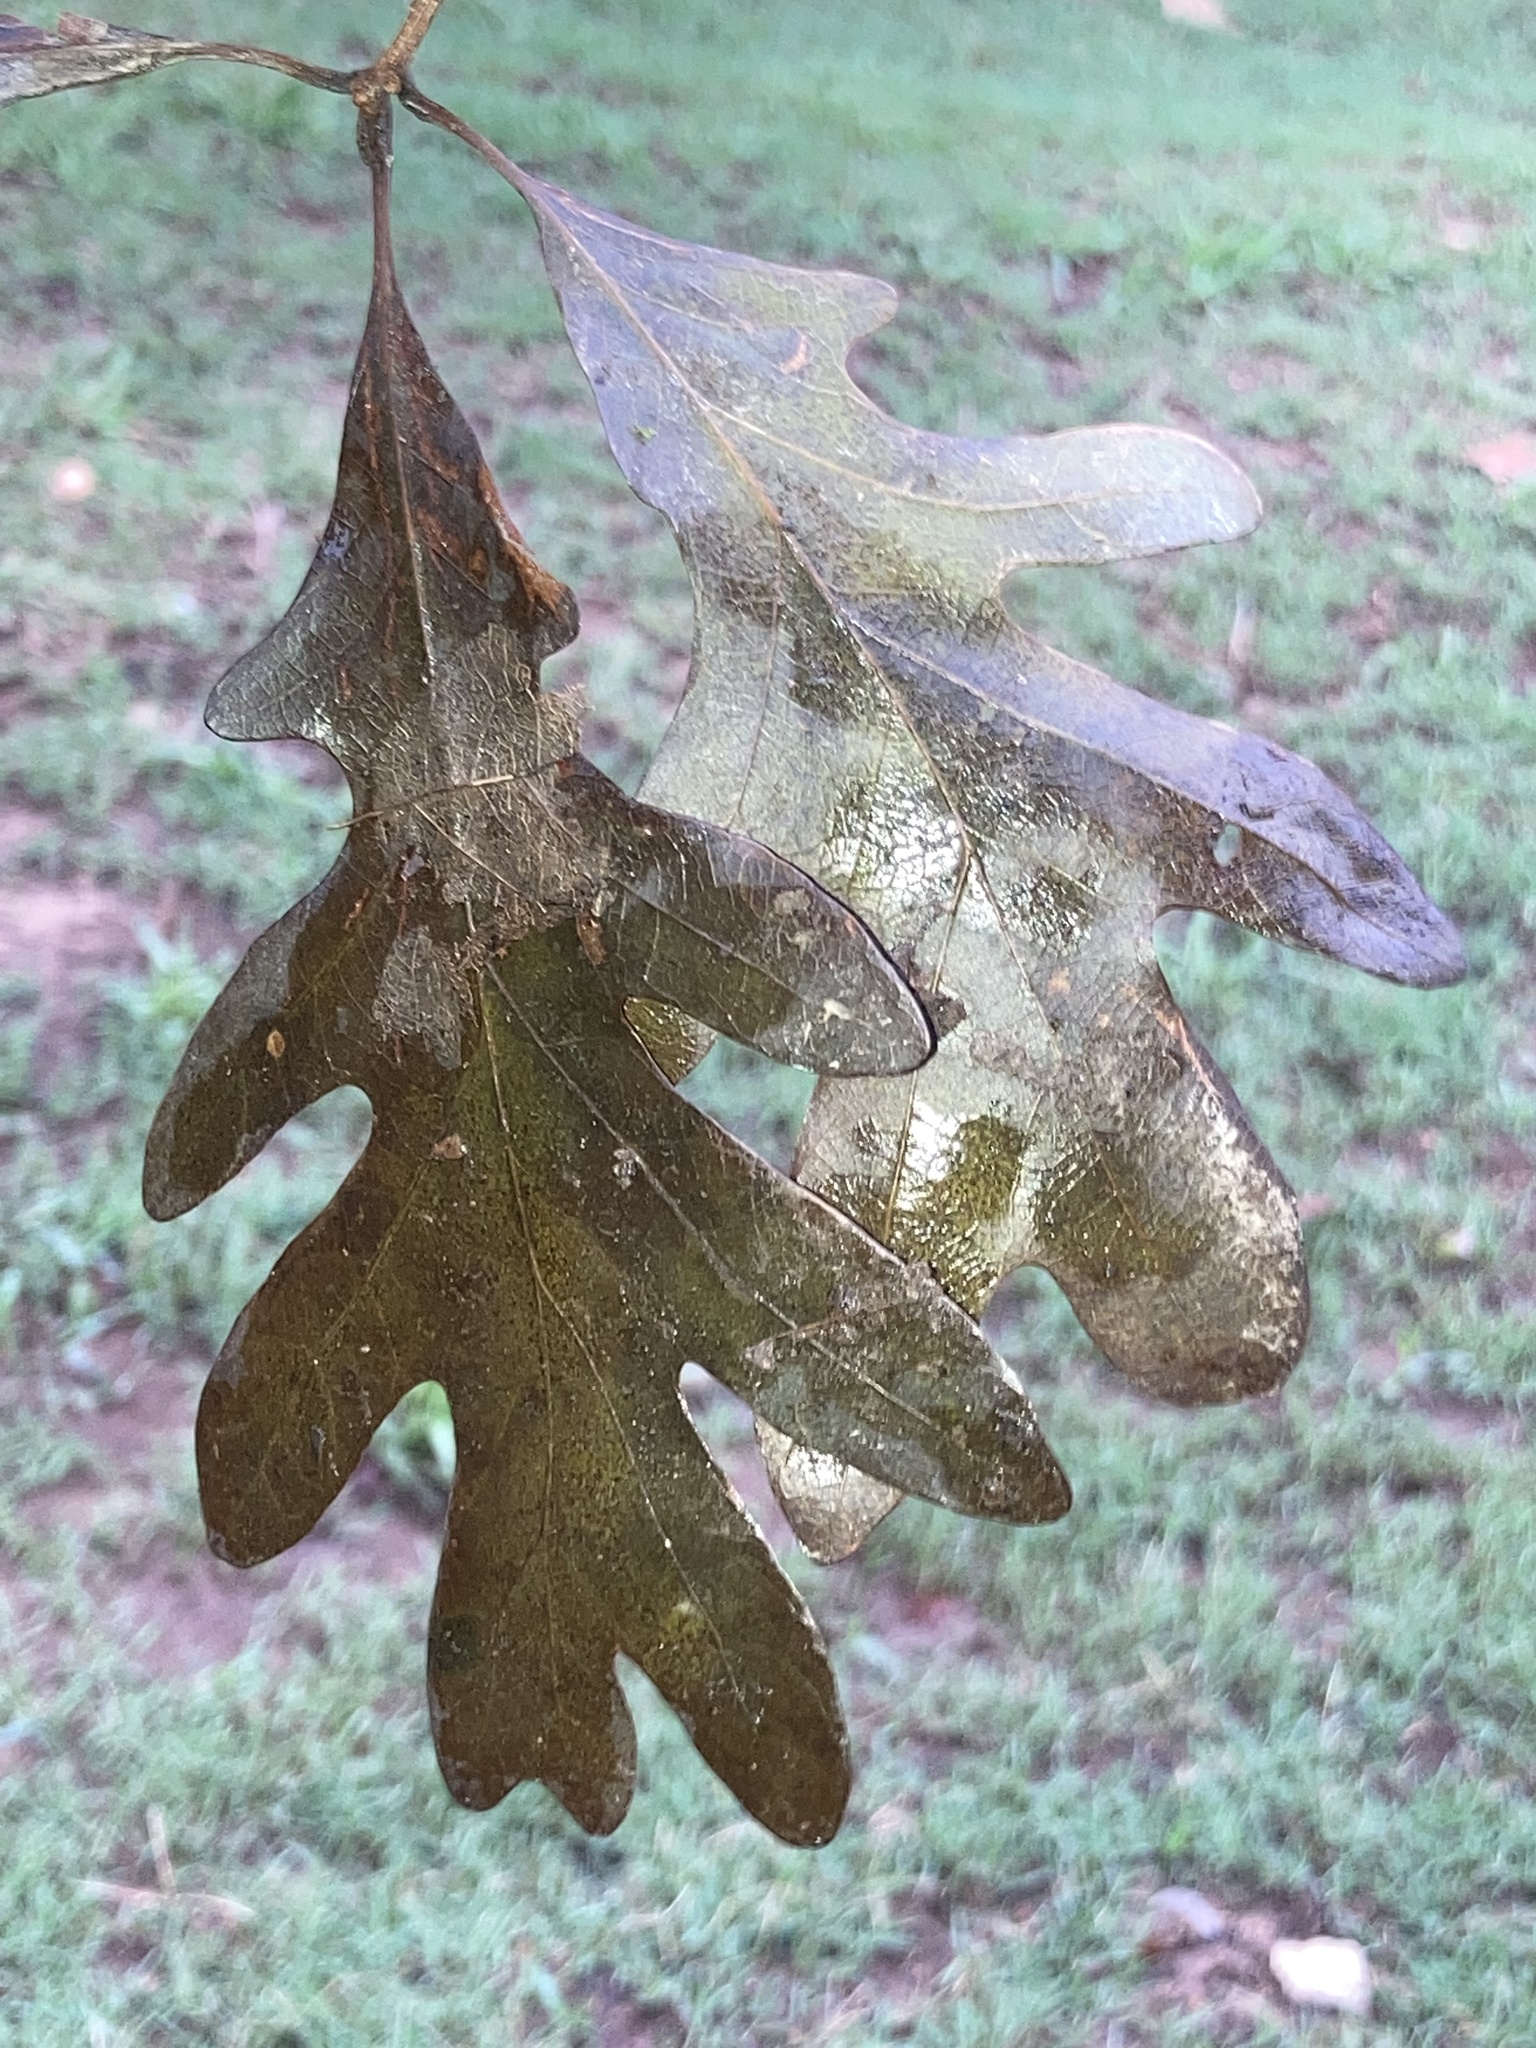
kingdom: Plantae
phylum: Tracheophyta
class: Magnoliopsida
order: Fagales
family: Fagaceae
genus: Quercus
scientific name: Quercus alba
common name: White oak
